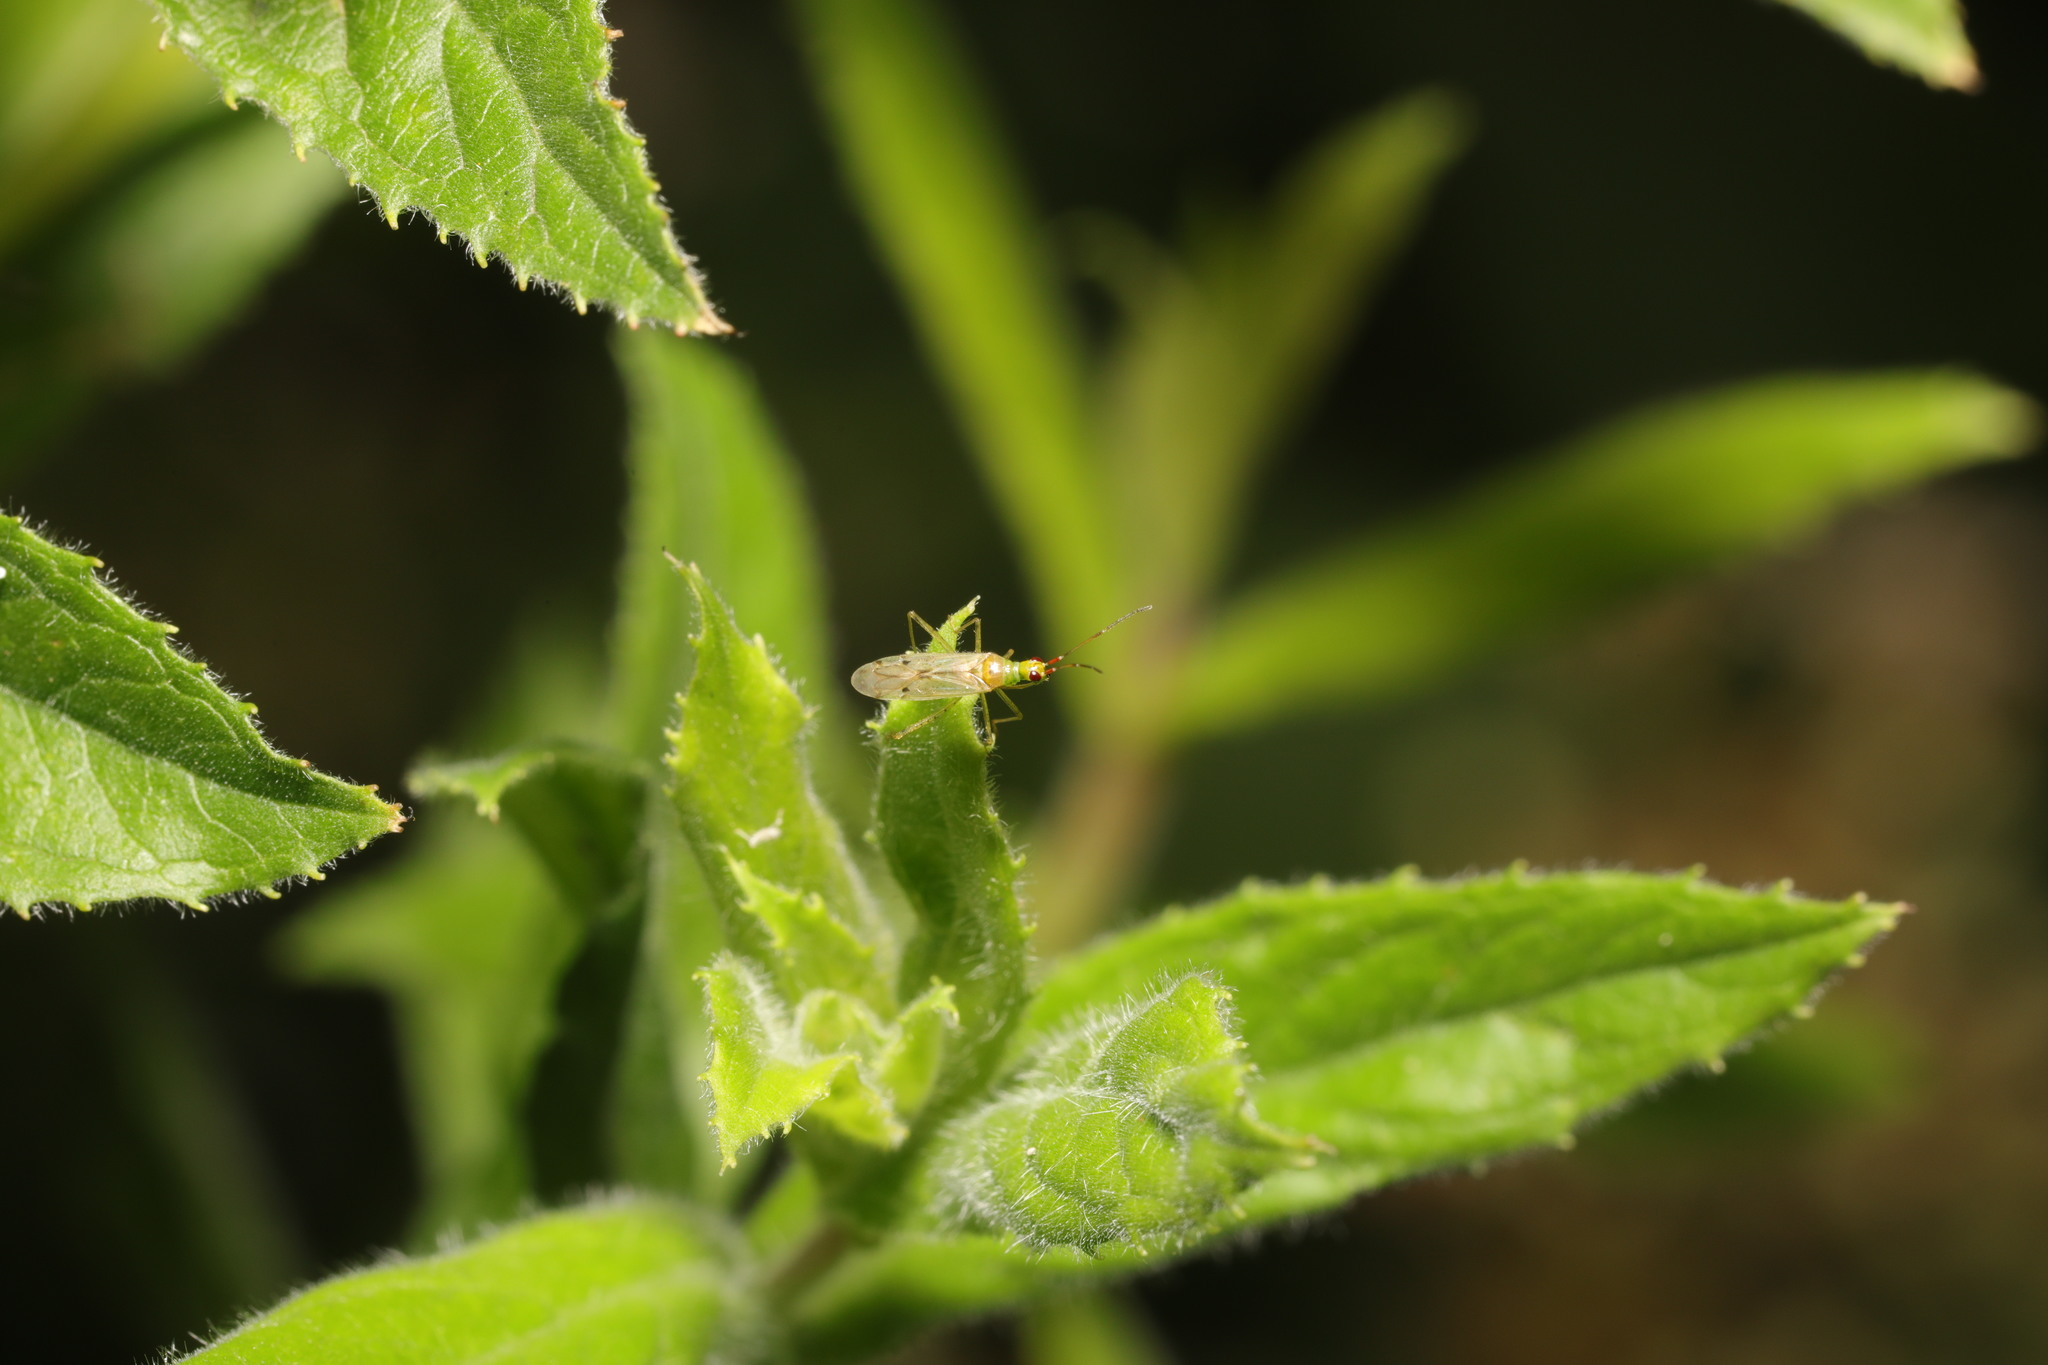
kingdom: Animalia
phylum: Arthropoda
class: Insecta
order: Hemiptera
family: Miridae
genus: Dicyphus
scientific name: Dicyphus epilobii
